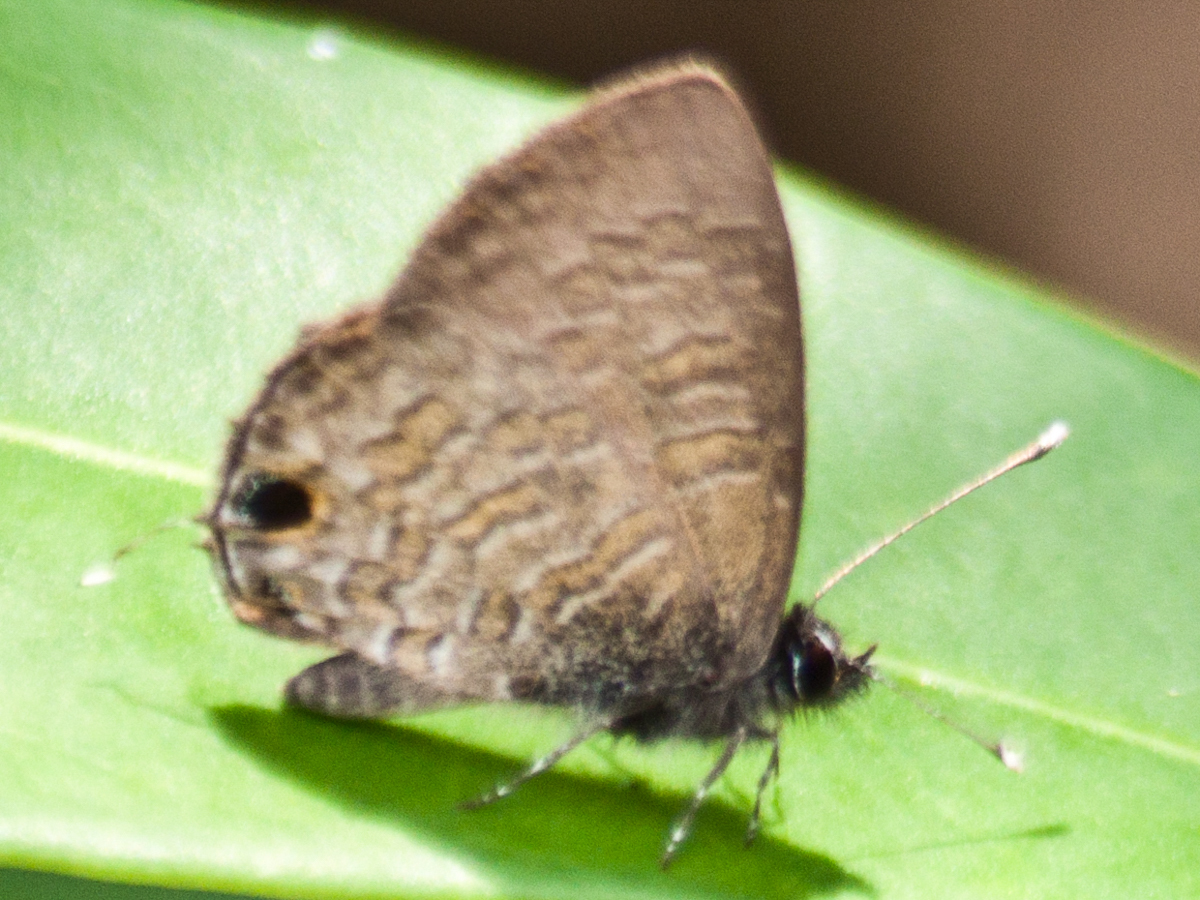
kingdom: Animalia
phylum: Arthropoda
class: Insecta
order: Lepidoptera
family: Lycaenidae
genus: Prosotas
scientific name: Prosotas nora
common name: Common line blue
